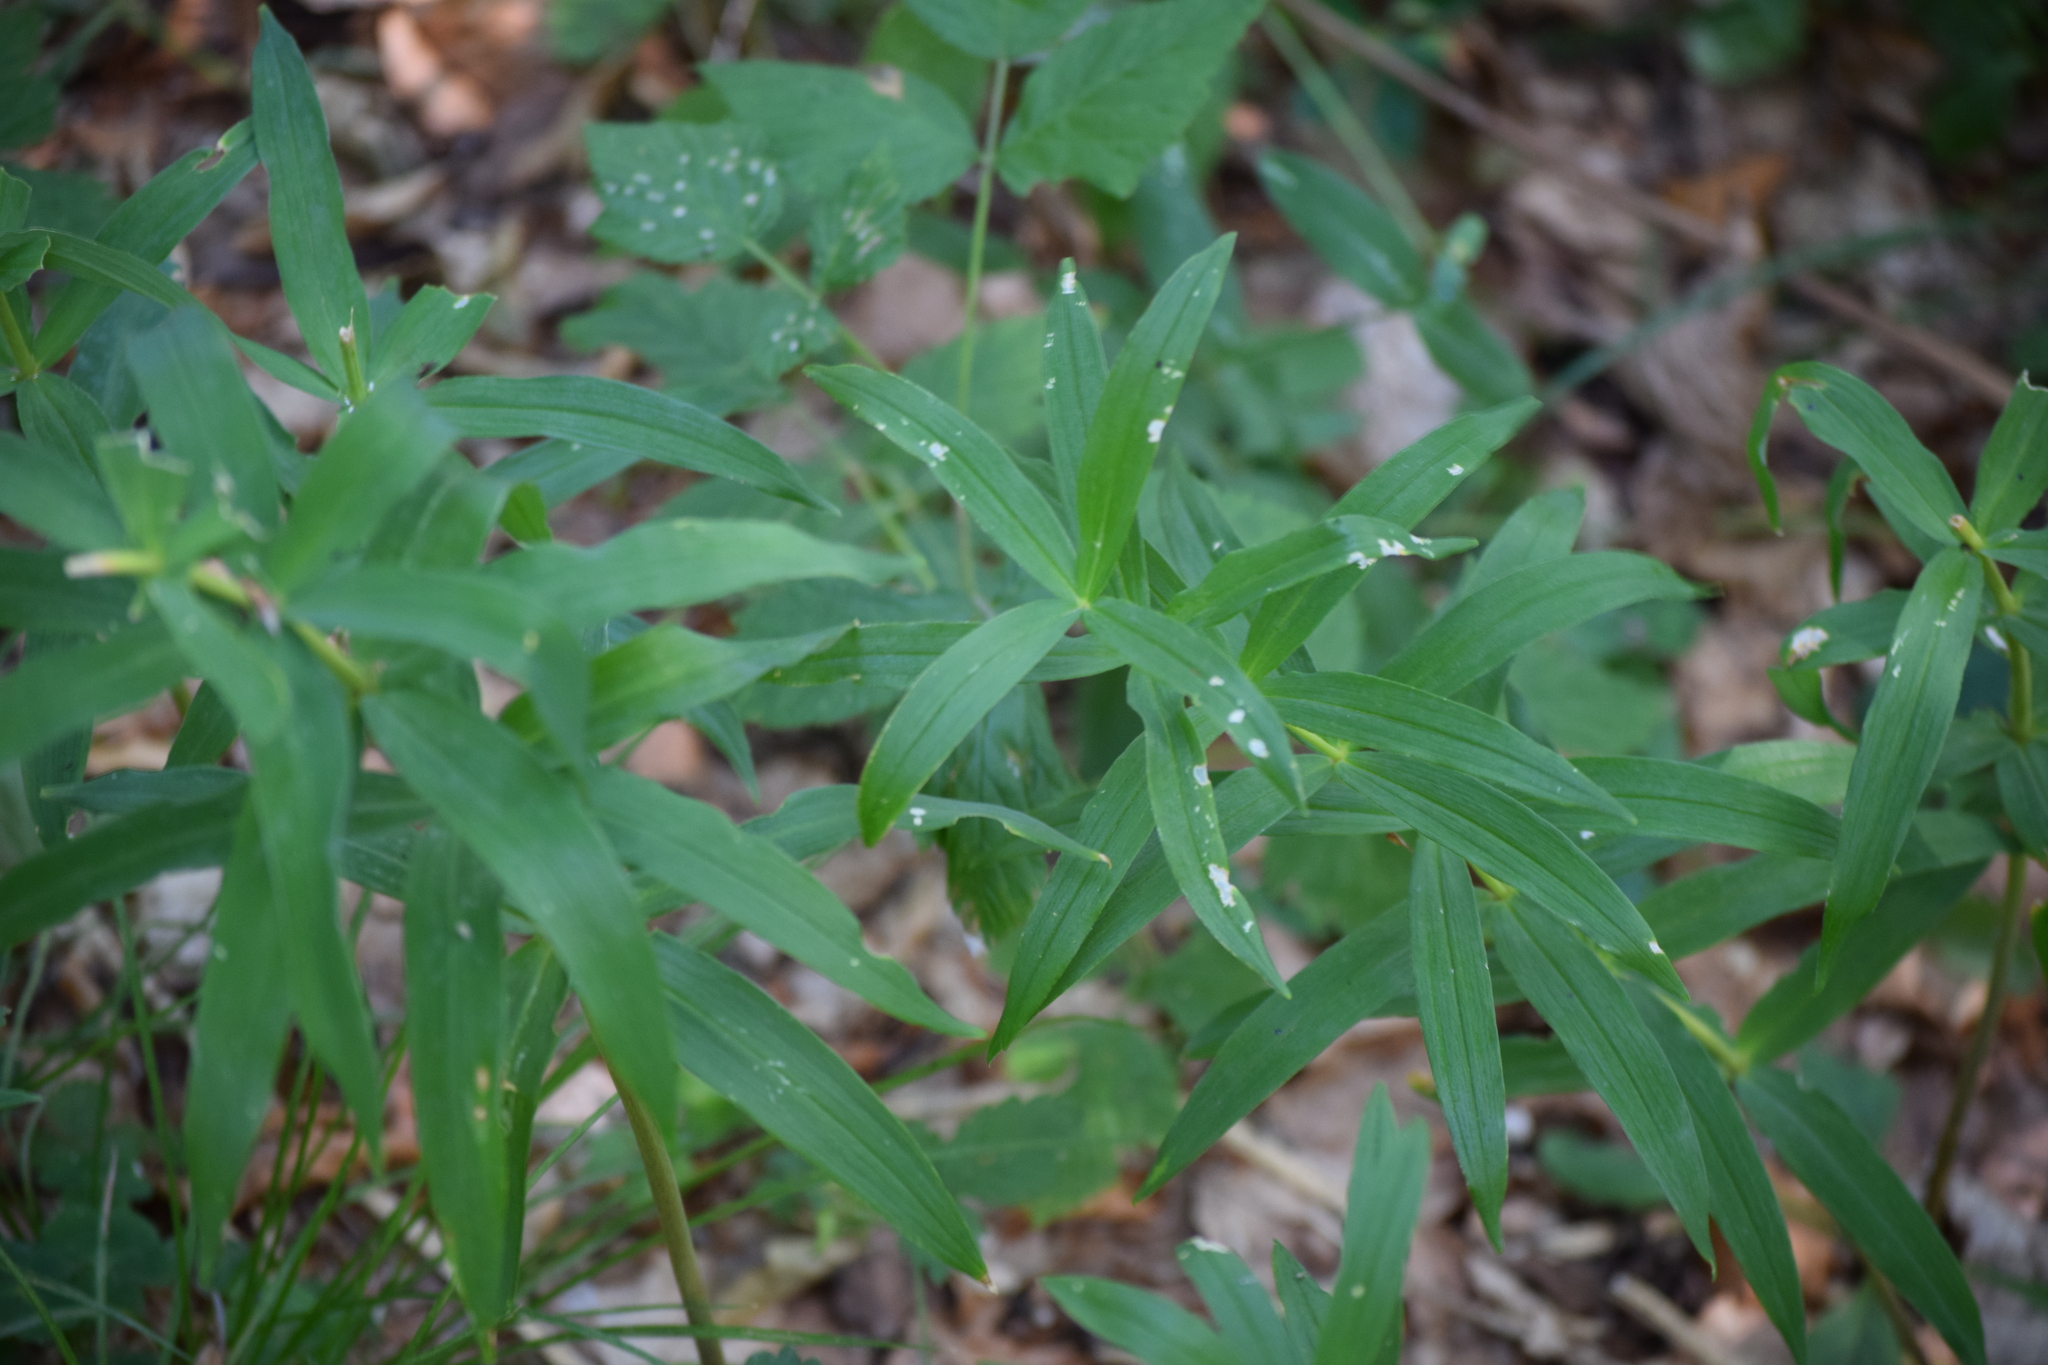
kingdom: Plantae
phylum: Tracheophyta
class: Liliopsida
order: Asparagales
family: Asparagaceae
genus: Polygonatum
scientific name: Polygonatum verticillatum
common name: Whorled solomon's-seal
